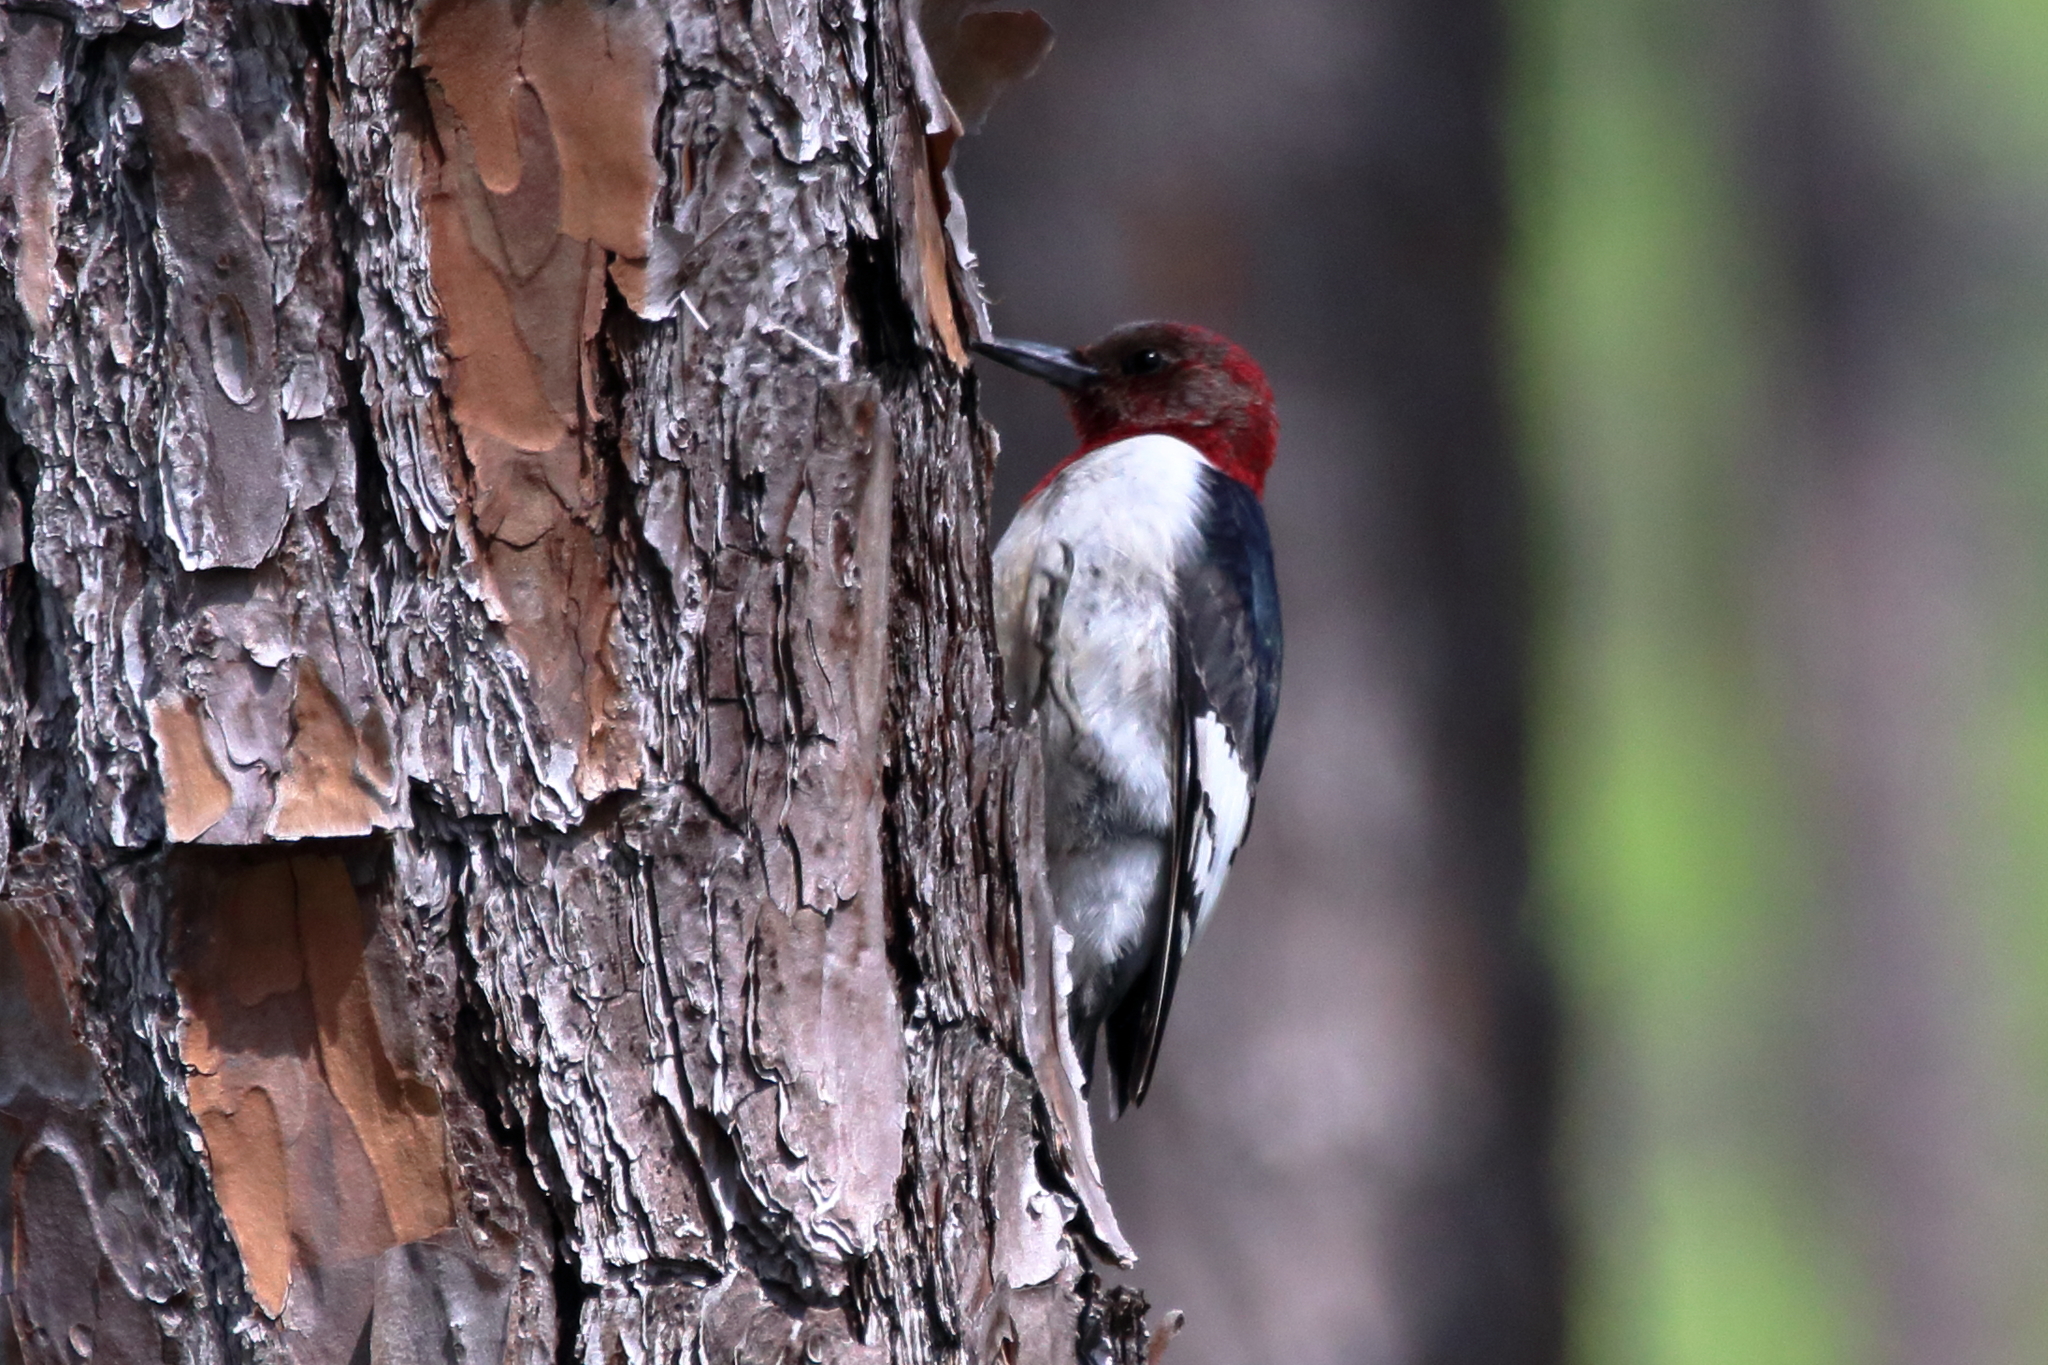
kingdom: Animalia
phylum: Chordata
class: Aves
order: Piciformes
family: Picidae
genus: Melanerpes
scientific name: Melanerpes erythrocephalus
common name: Red-headed woodpecker
